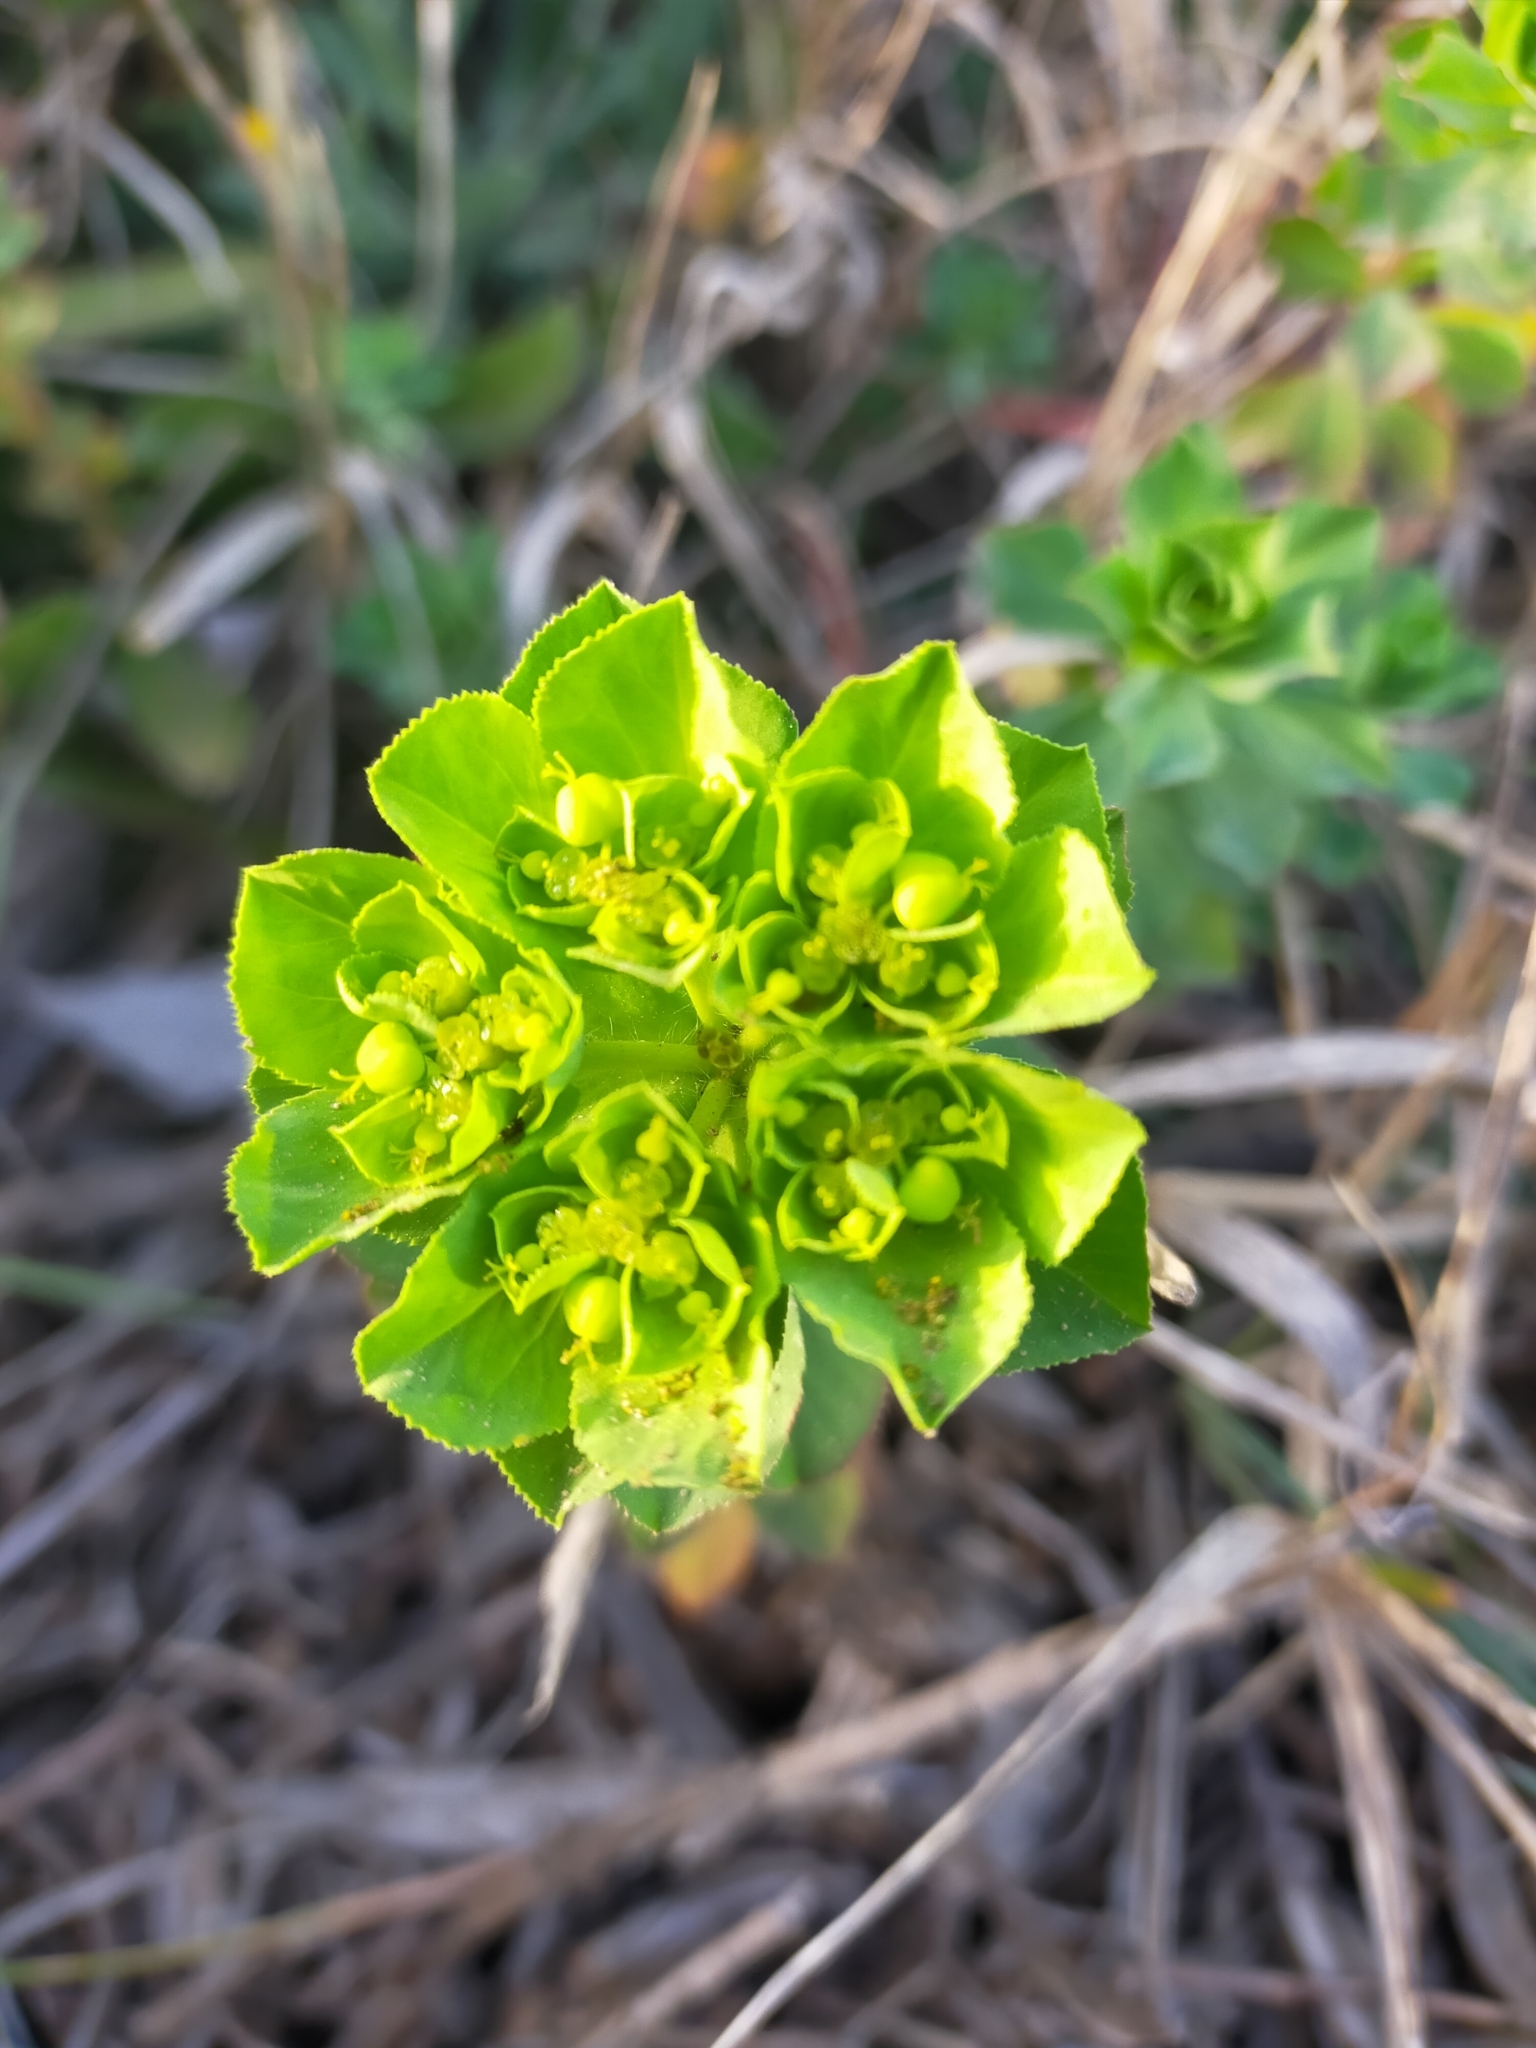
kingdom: Plantae
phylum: Tracheophyta
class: Magnoliopsida
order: Malpighiales
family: Euphorbiaceae
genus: Euphorbia
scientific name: Euphorbia helioscopia
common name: Sun spurge
